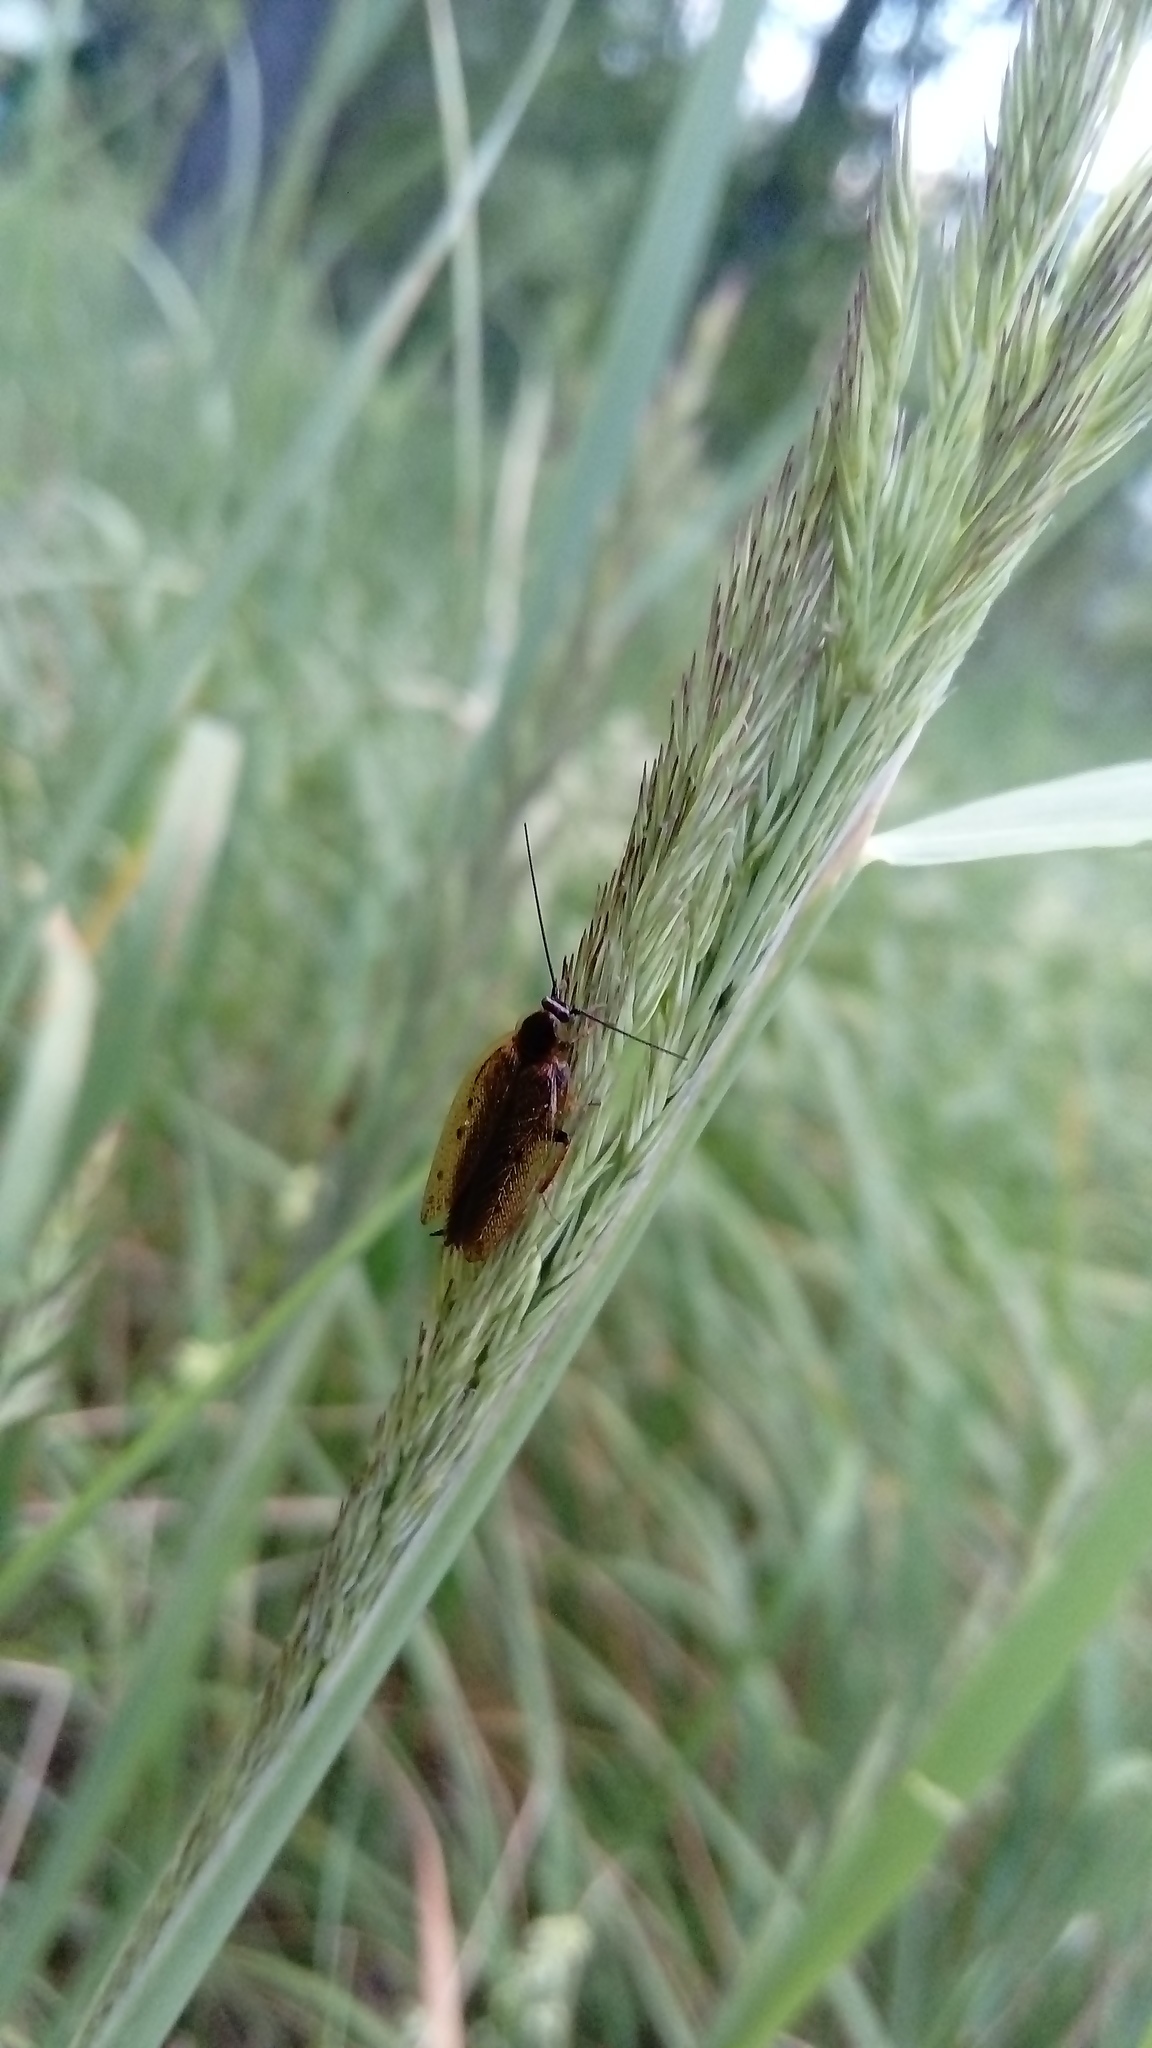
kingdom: Animalia
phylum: Arthropoda
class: Insecta
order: Blattodea
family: Ectobiidae
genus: Ectobius
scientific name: Ectobius lapponicus
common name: Dusky cockroach
